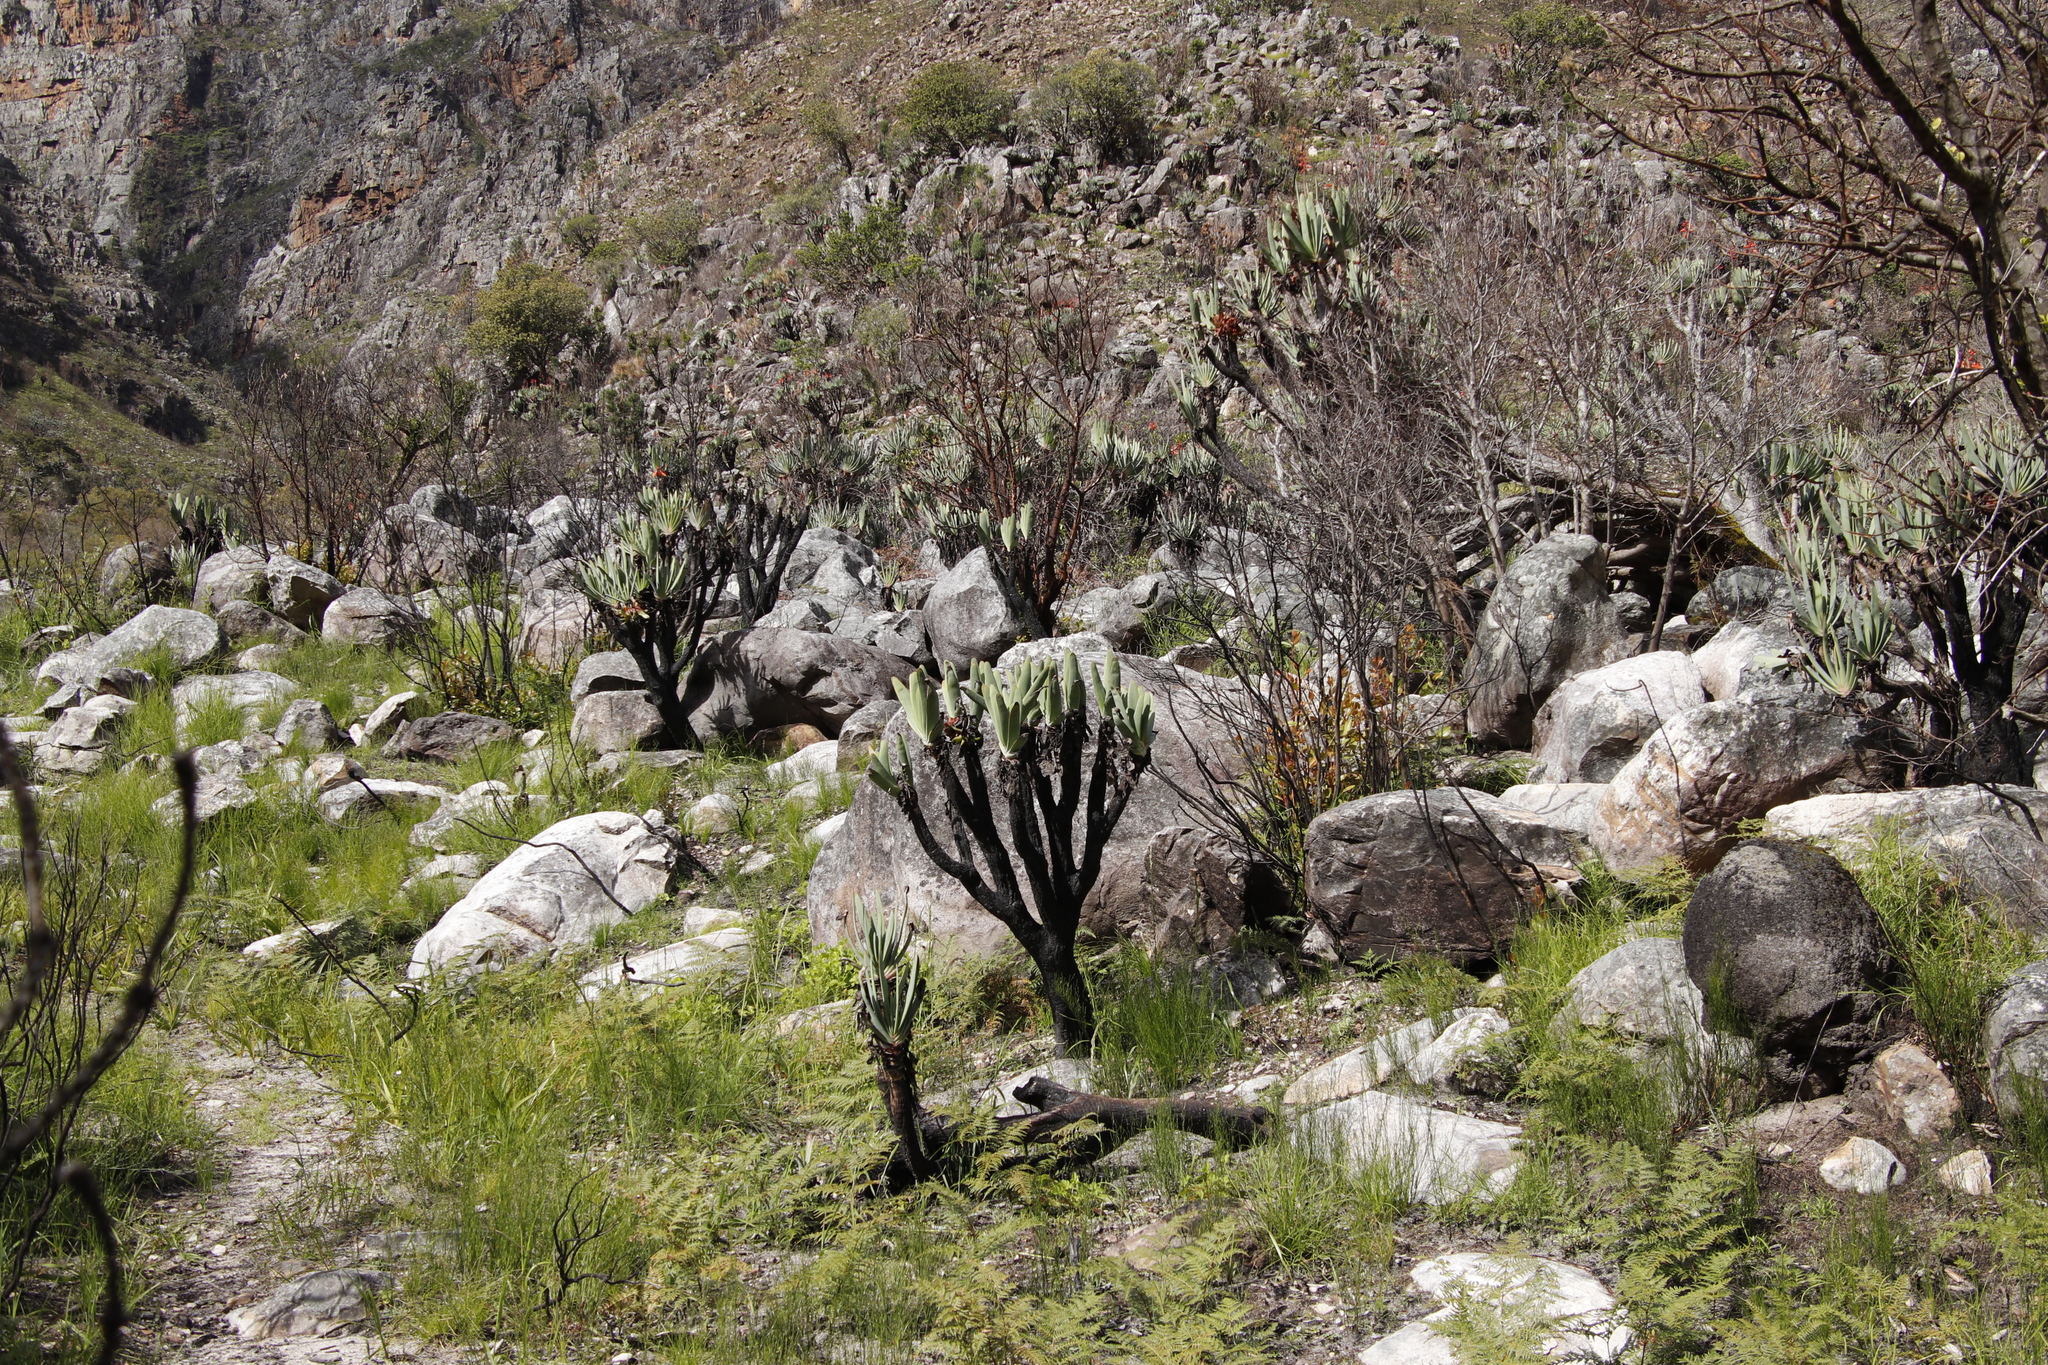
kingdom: Plantae
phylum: Tracheophyta
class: Liliopsida
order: Asparagales
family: Asphodelaceae
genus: Kumara
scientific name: Kumara plicatilis
